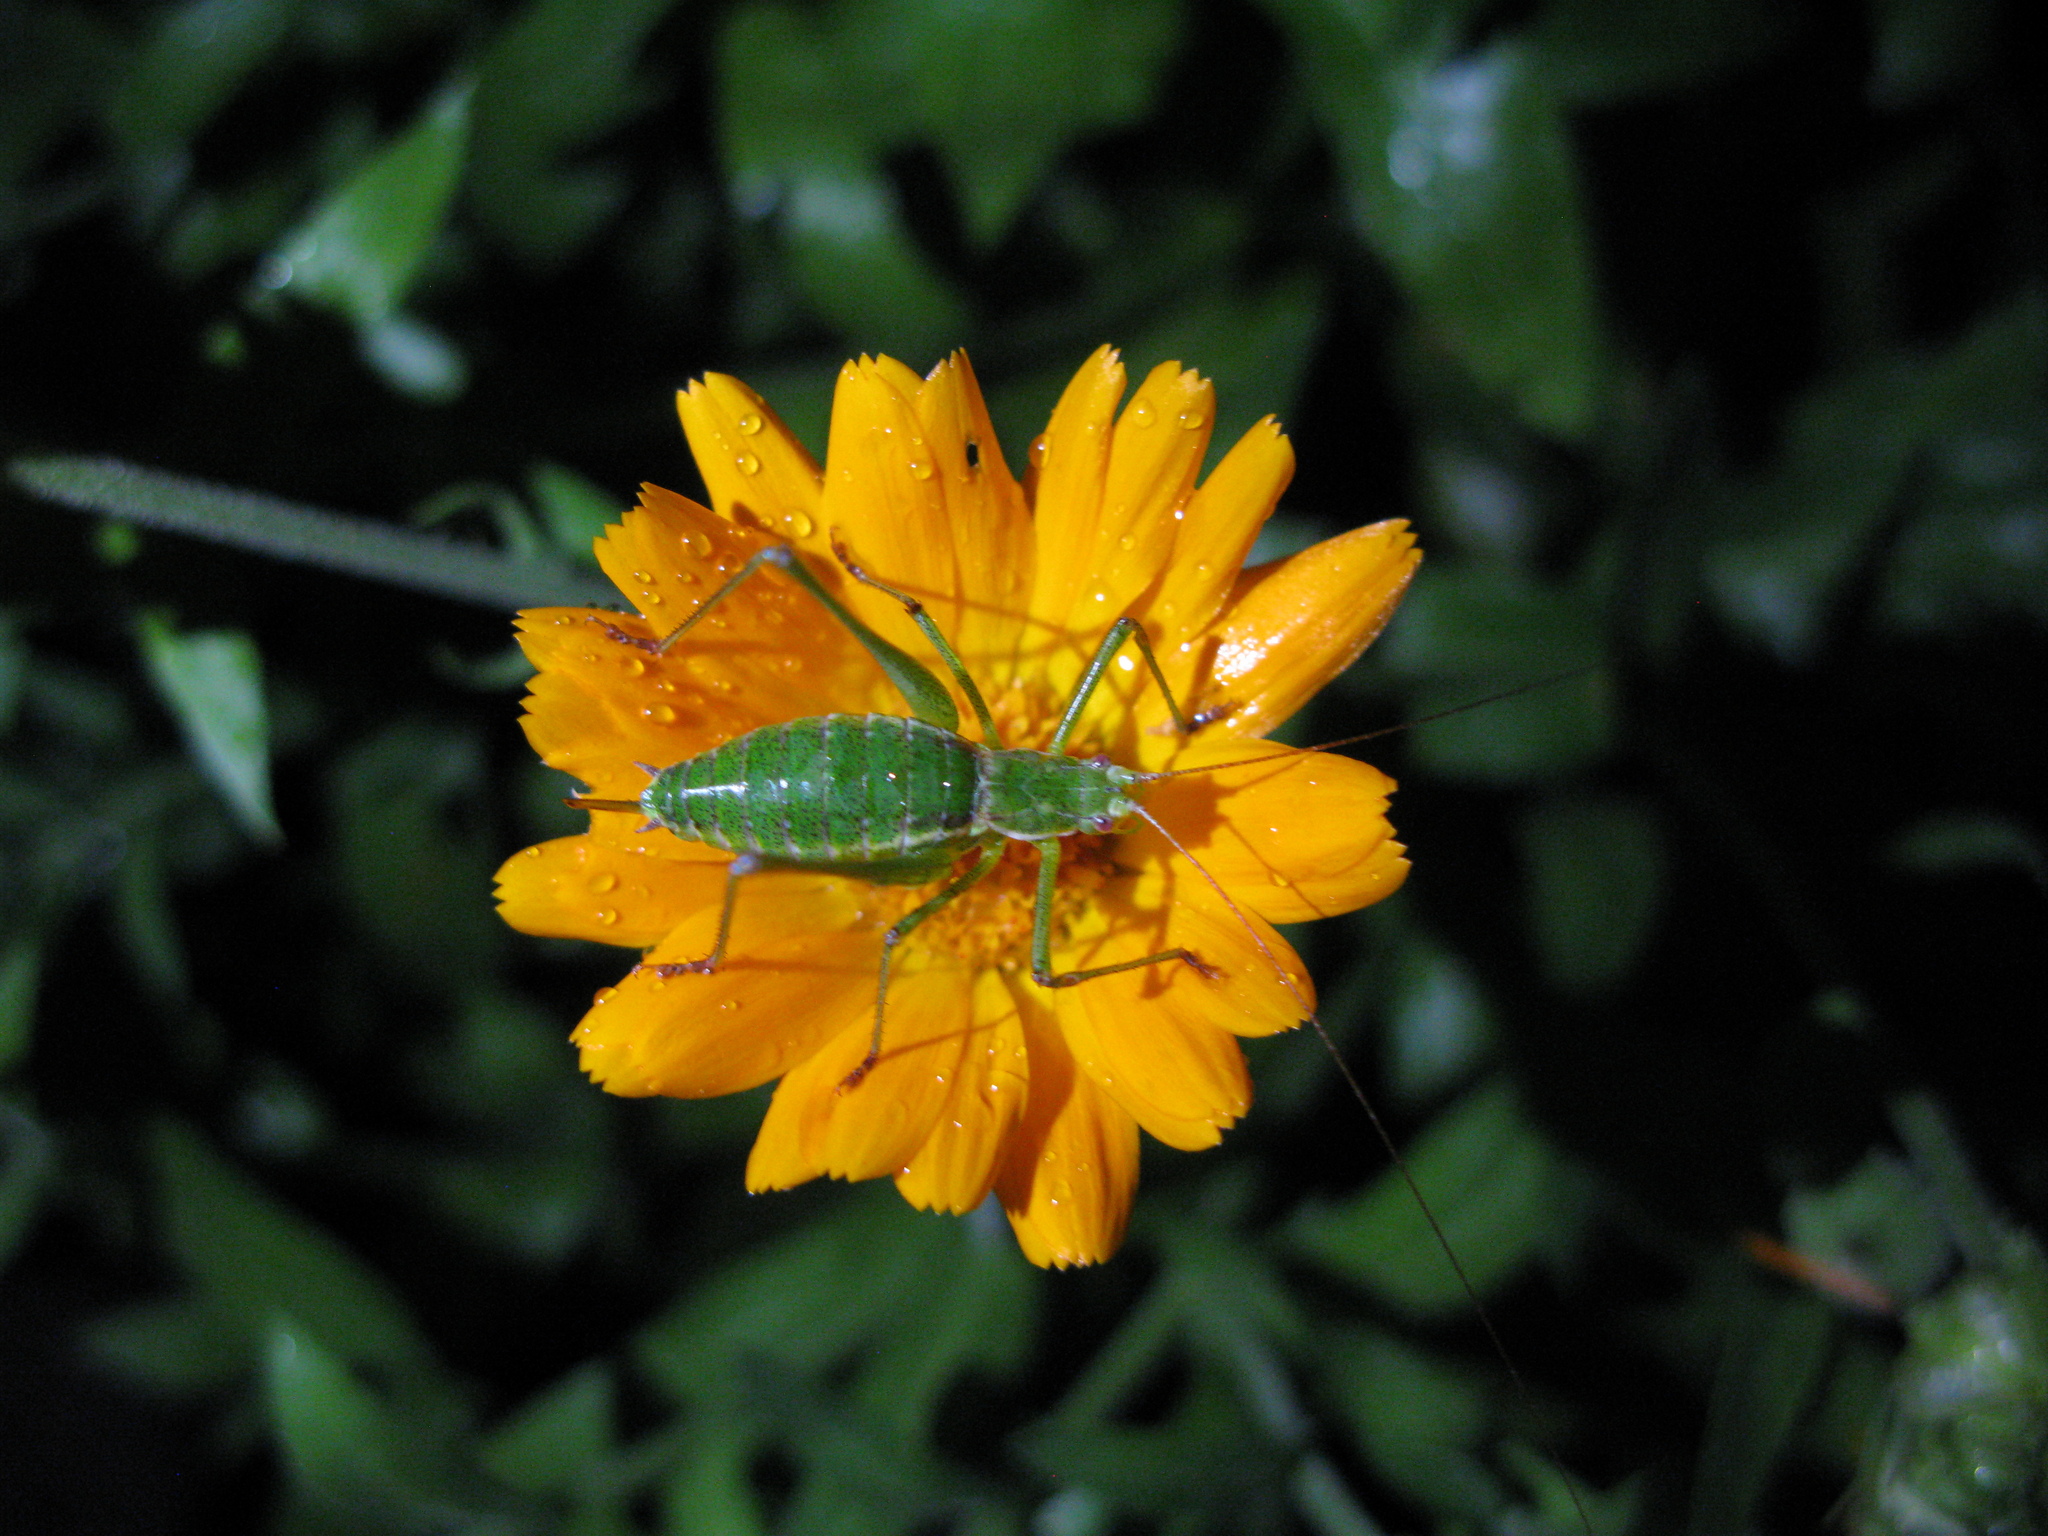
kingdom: Animalia
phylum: Arthropoda
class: Insecta
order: Orthoptera
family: Tettigoniidae
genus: Leptophyes
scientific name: Leptophyes albovittata
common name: Striped bush-cricket
